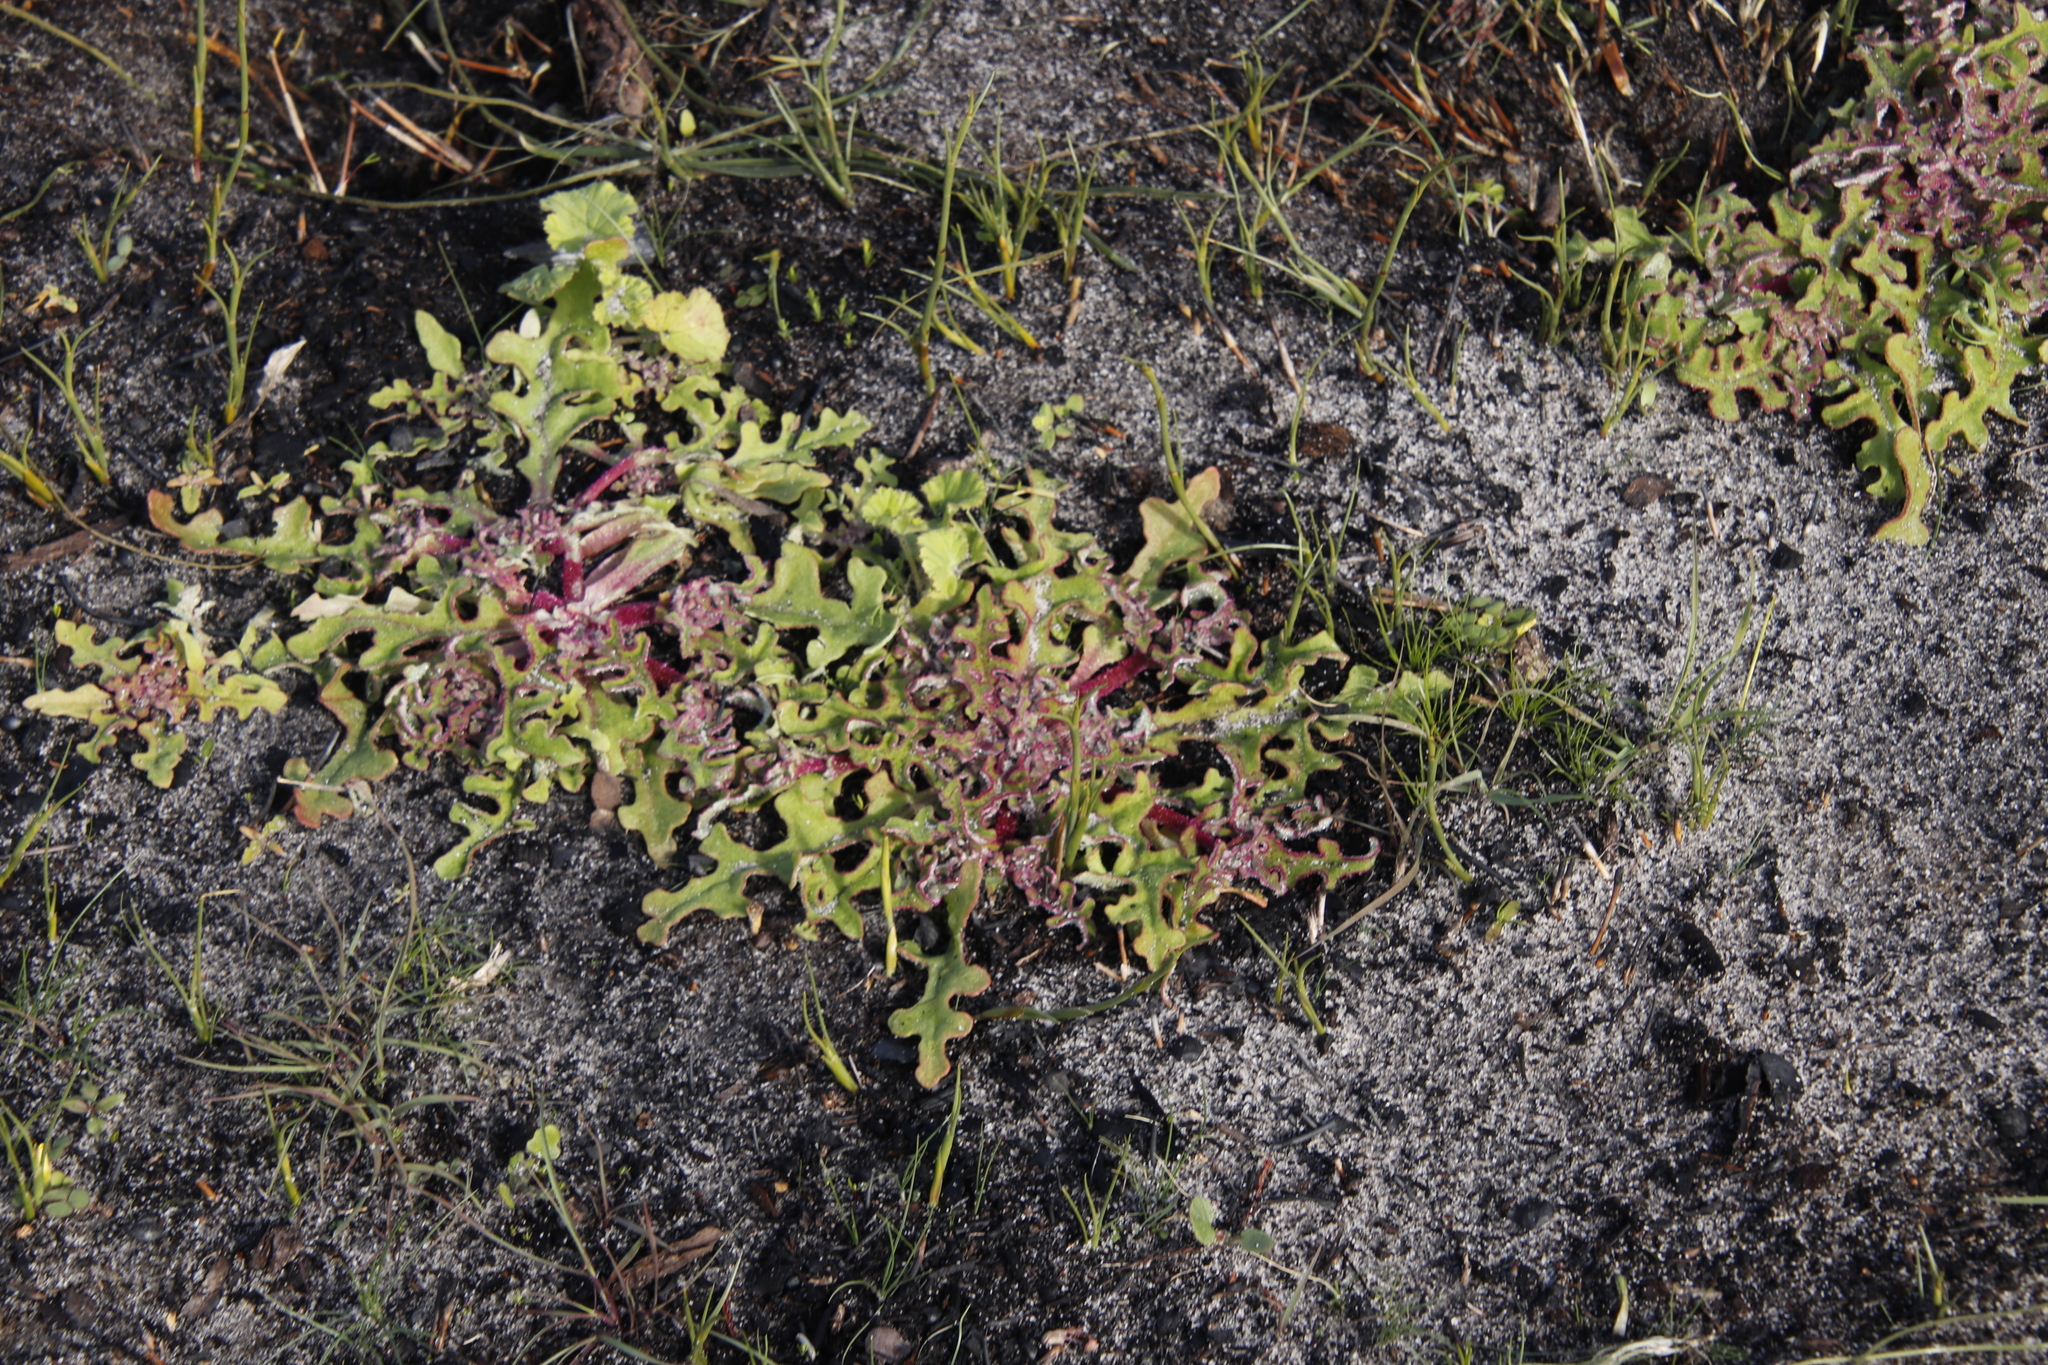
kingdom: Plantae
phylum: Tracheophyta
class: Magnoliopsida
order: Caryophyllales
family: Aizoaceae
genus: Cleretum
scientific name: Cleretum herrei
